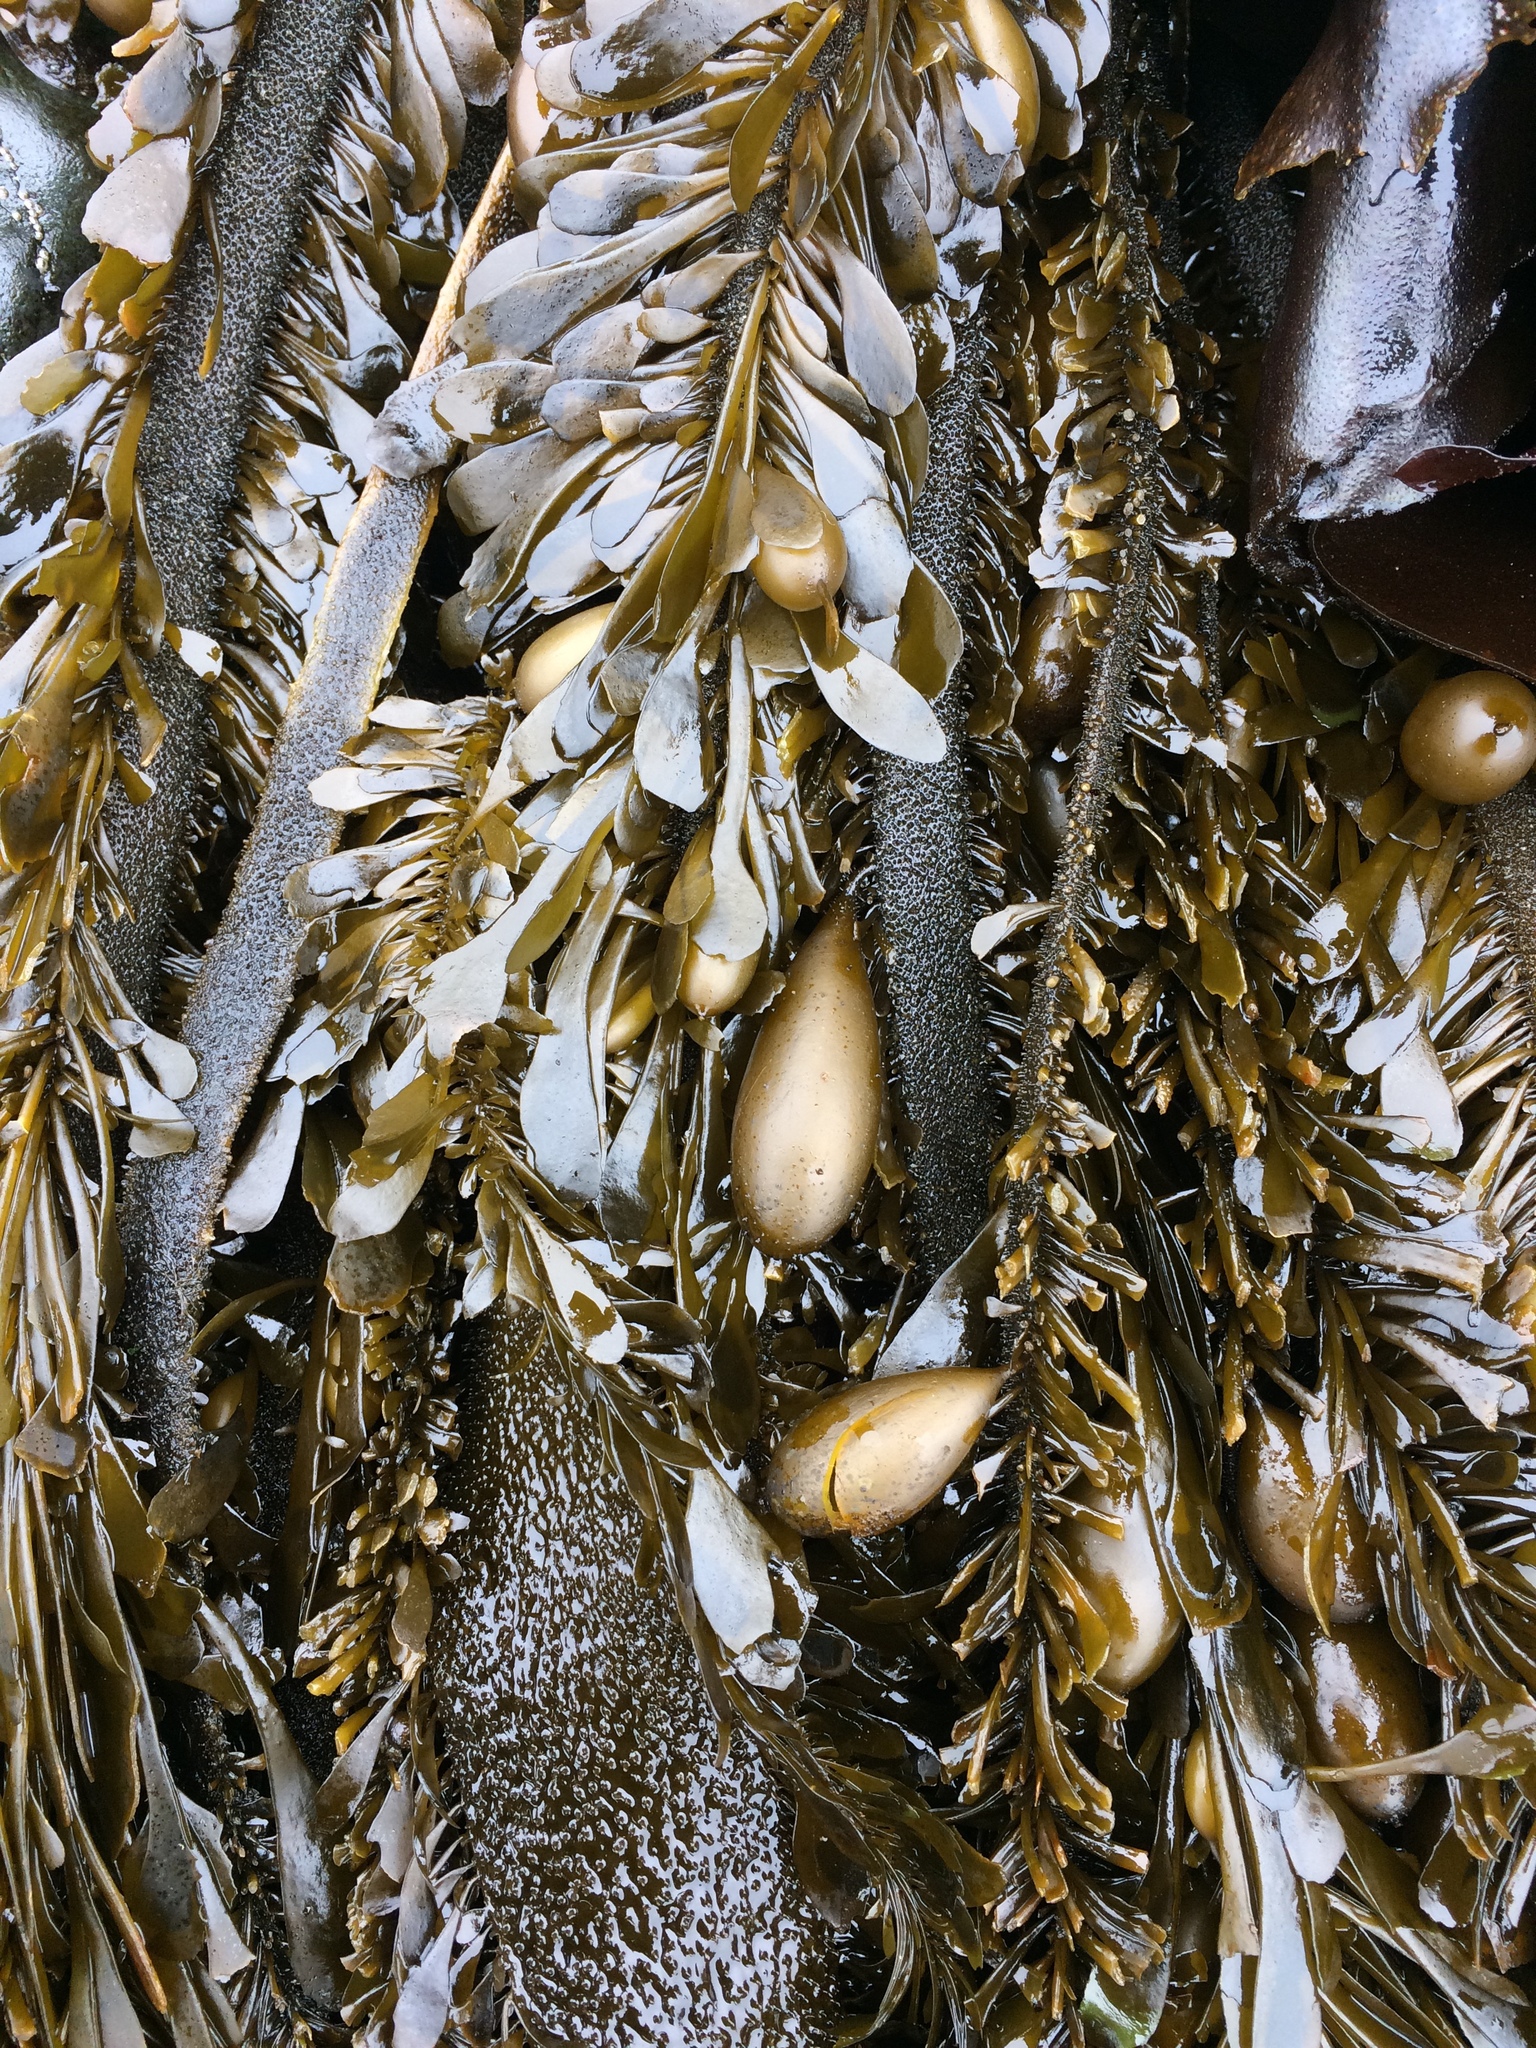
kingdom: Chromista
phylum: Ochrophyta
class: Phaeophyceae
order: Laminariales
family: Lessoniaceae
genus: Egregia
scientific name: Egregia menziesii
